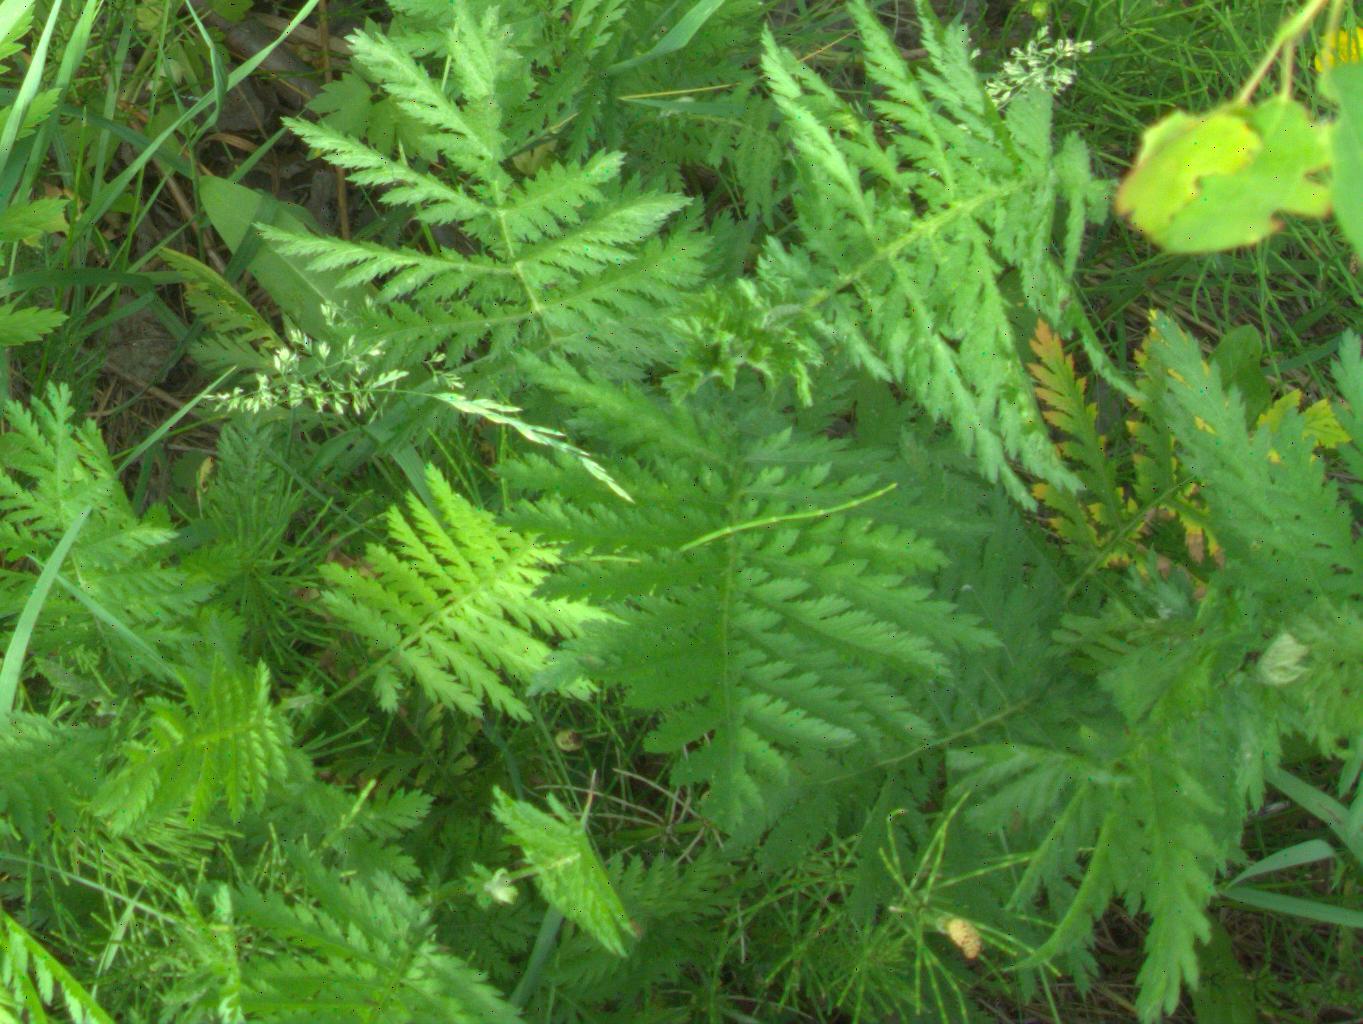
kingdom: Plantae
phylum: Tracheophyta
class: Magnoliopsida
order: Asterales
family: Asteraceae
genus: Tanacetum
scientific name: Tanacetum vulgare
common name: Common tansy
